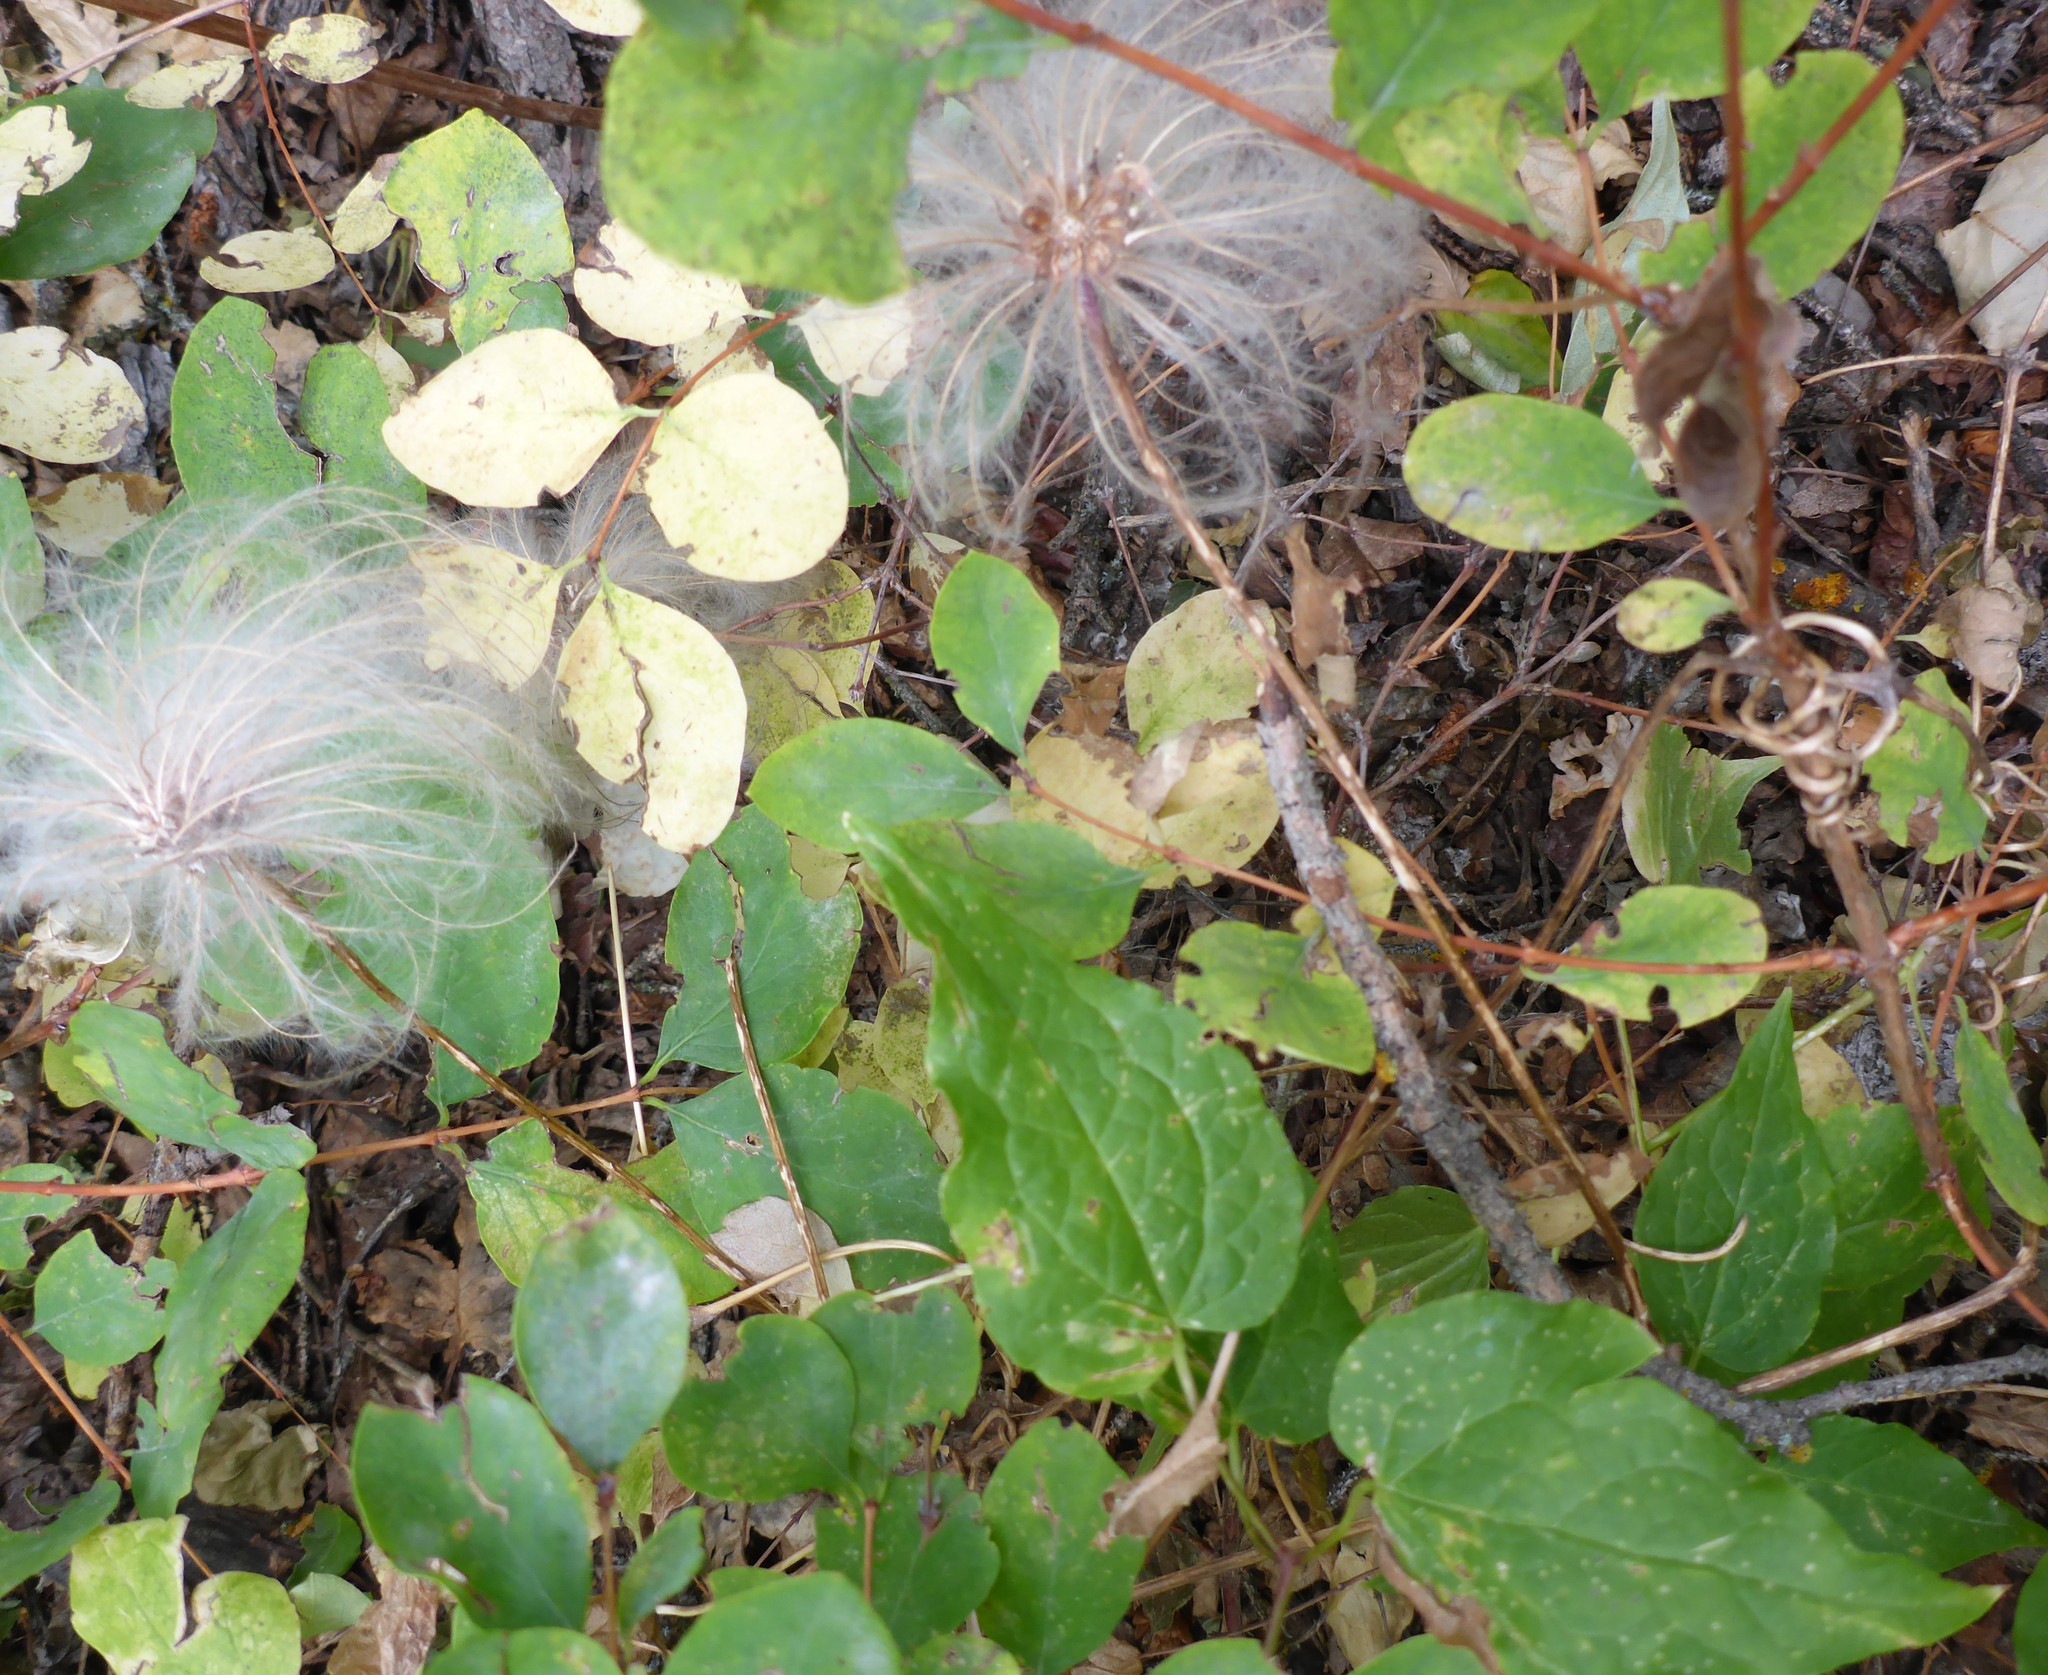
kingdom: Plantae
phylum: Tracheophyta
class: Magnoliopsida
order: Ranunculales
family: Ranunculaceae
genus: Clematis
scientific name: Clematis occidentalis
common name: Purple clematis
